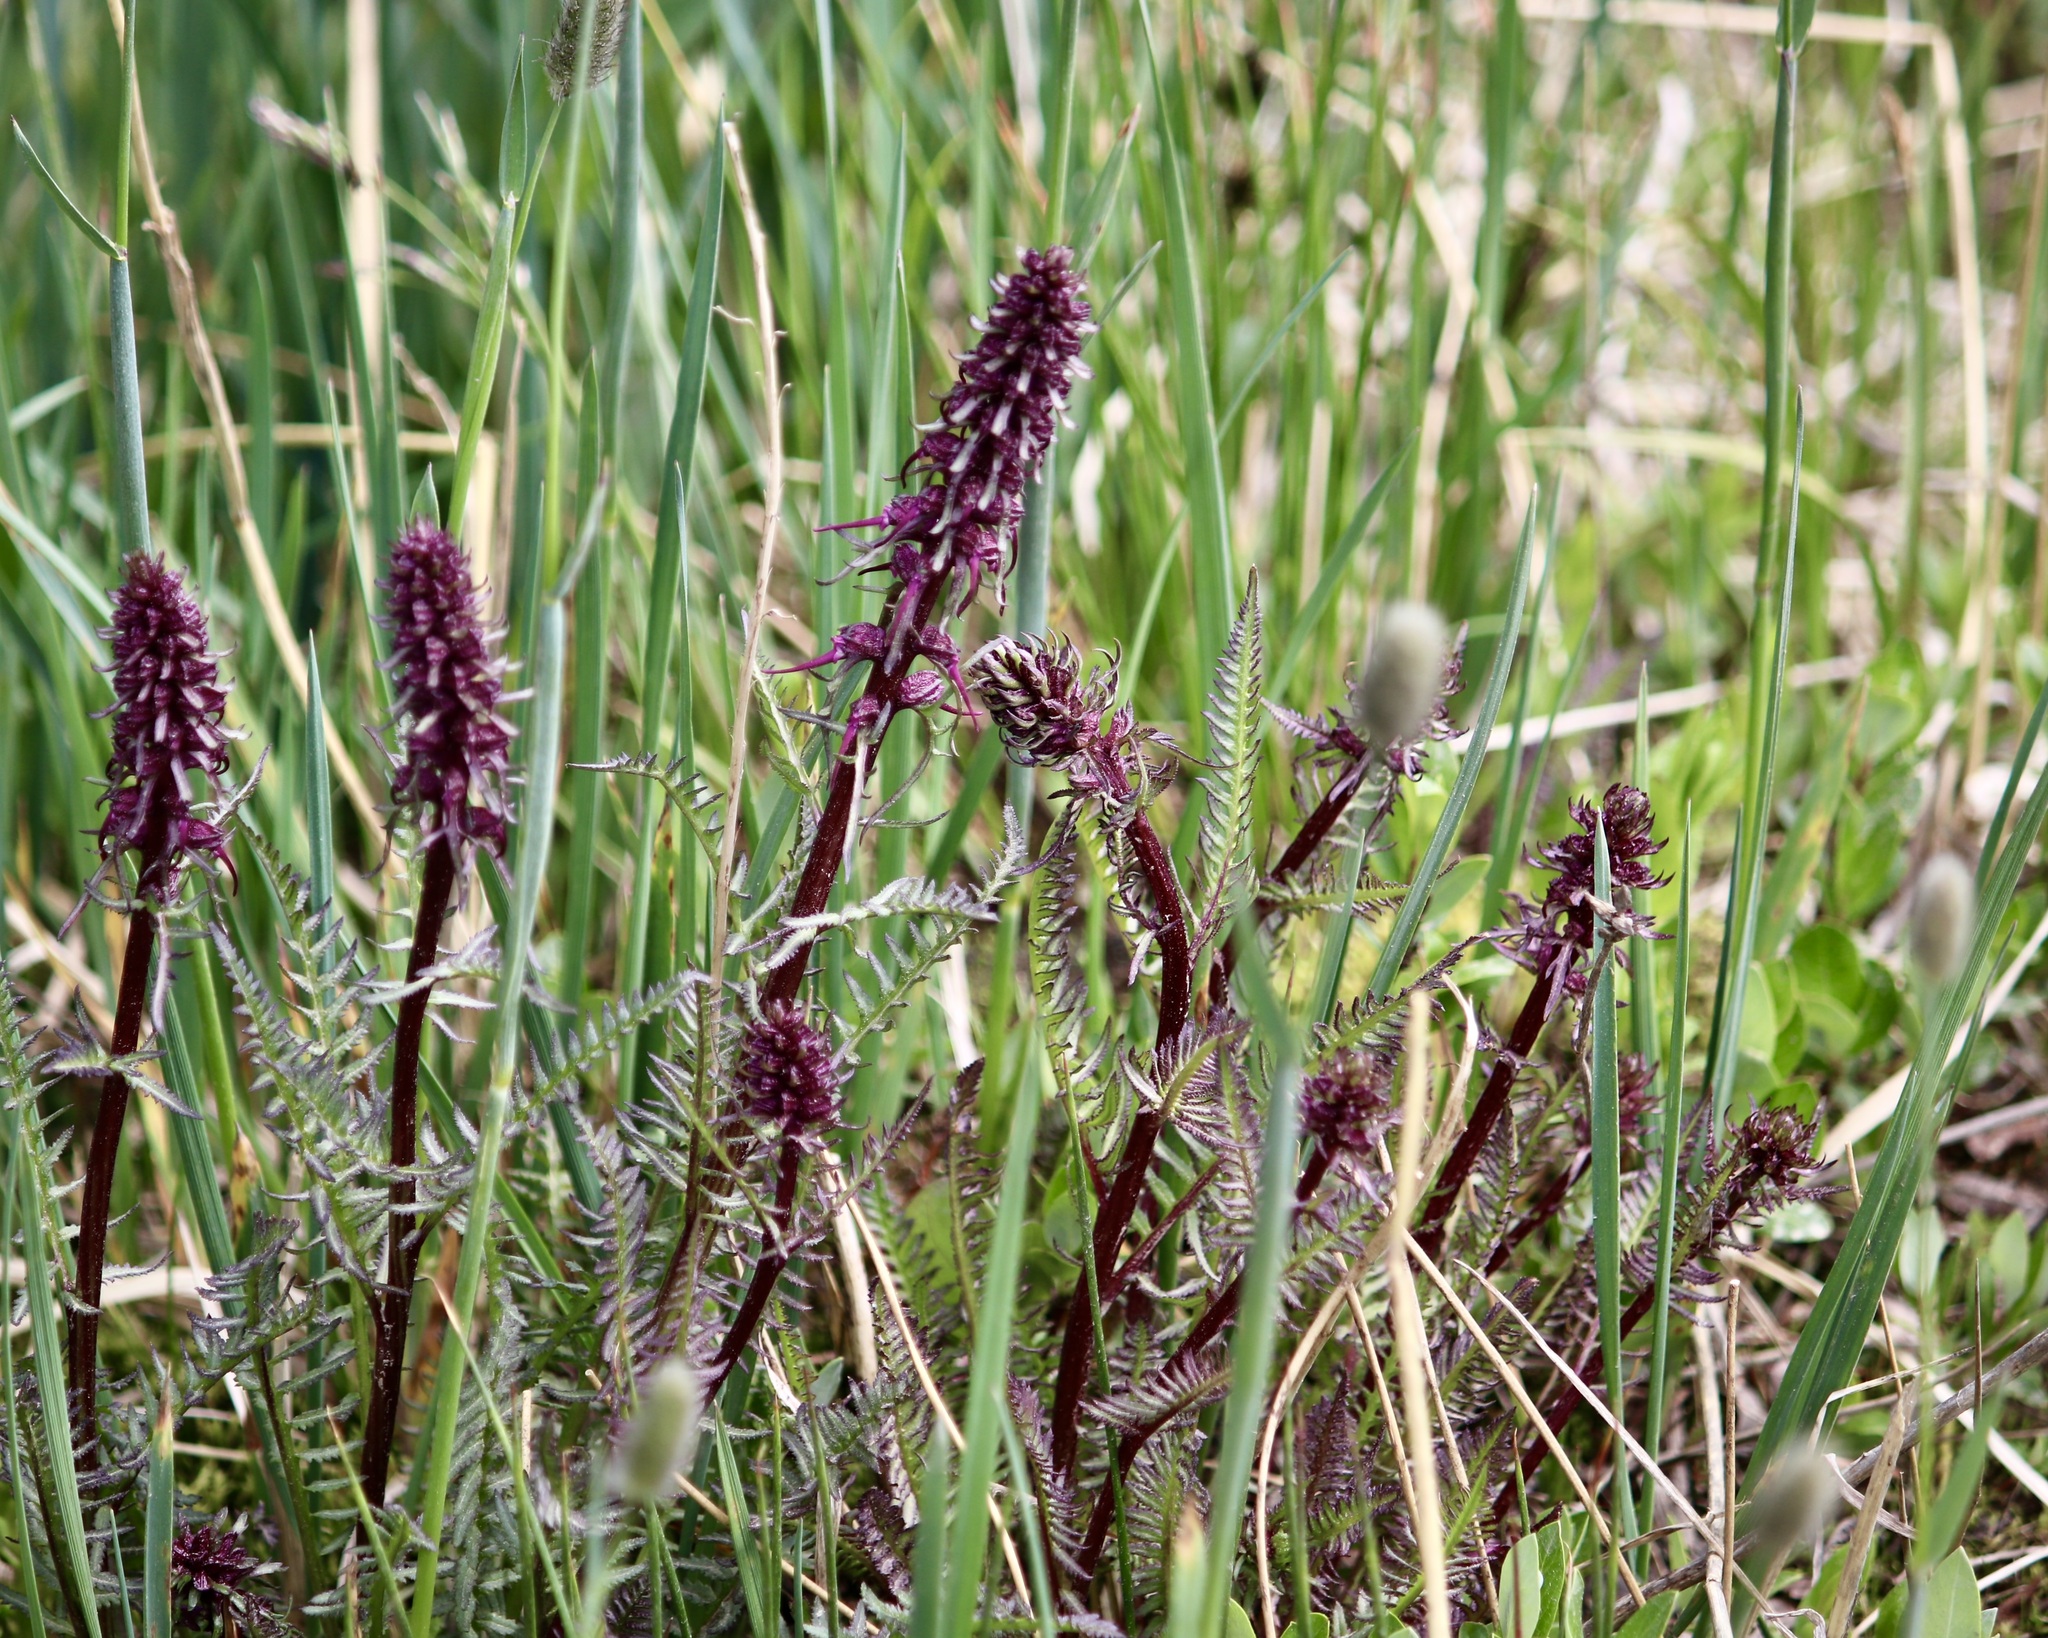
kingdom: Plantae
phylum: Tracheophyta
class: Magnoliopsida
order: Lamiales
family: Orobanchaceae
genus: Pedicularis
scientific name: Pedicularis groenlandica
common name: Elephant's-head
